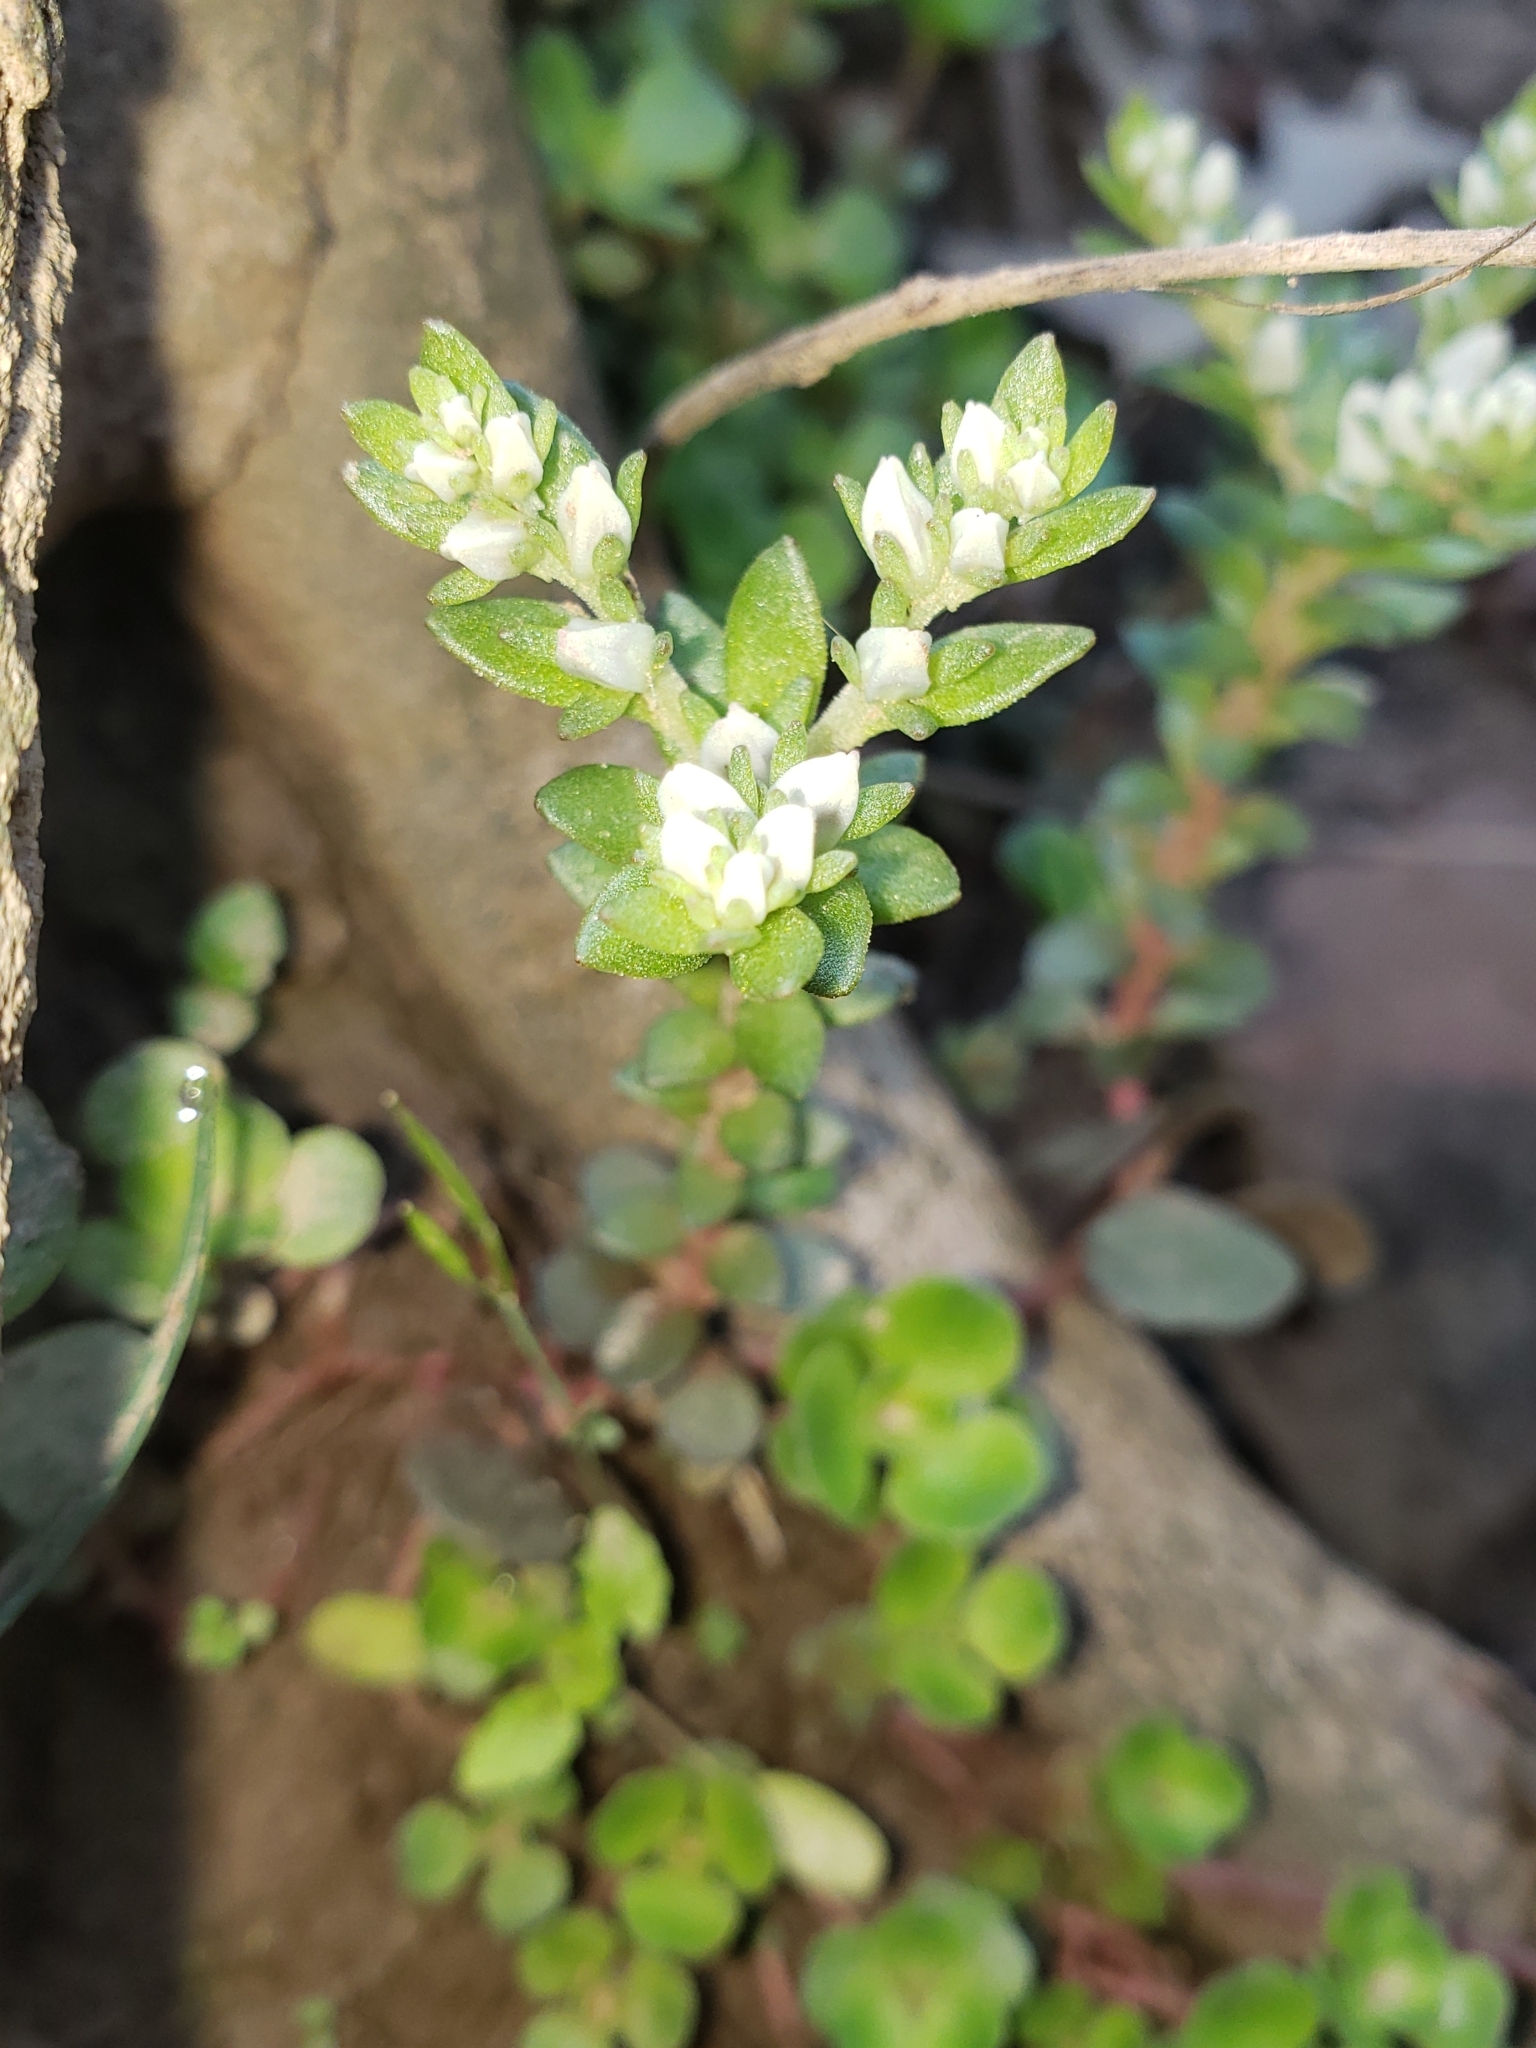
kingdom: Plantae
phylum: Tracheophyta
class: Magnoliopsida
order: Saxifragales
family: Crassulaceae
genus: Sedum
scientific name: Sedum ternatum
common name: Wild stonecrop
